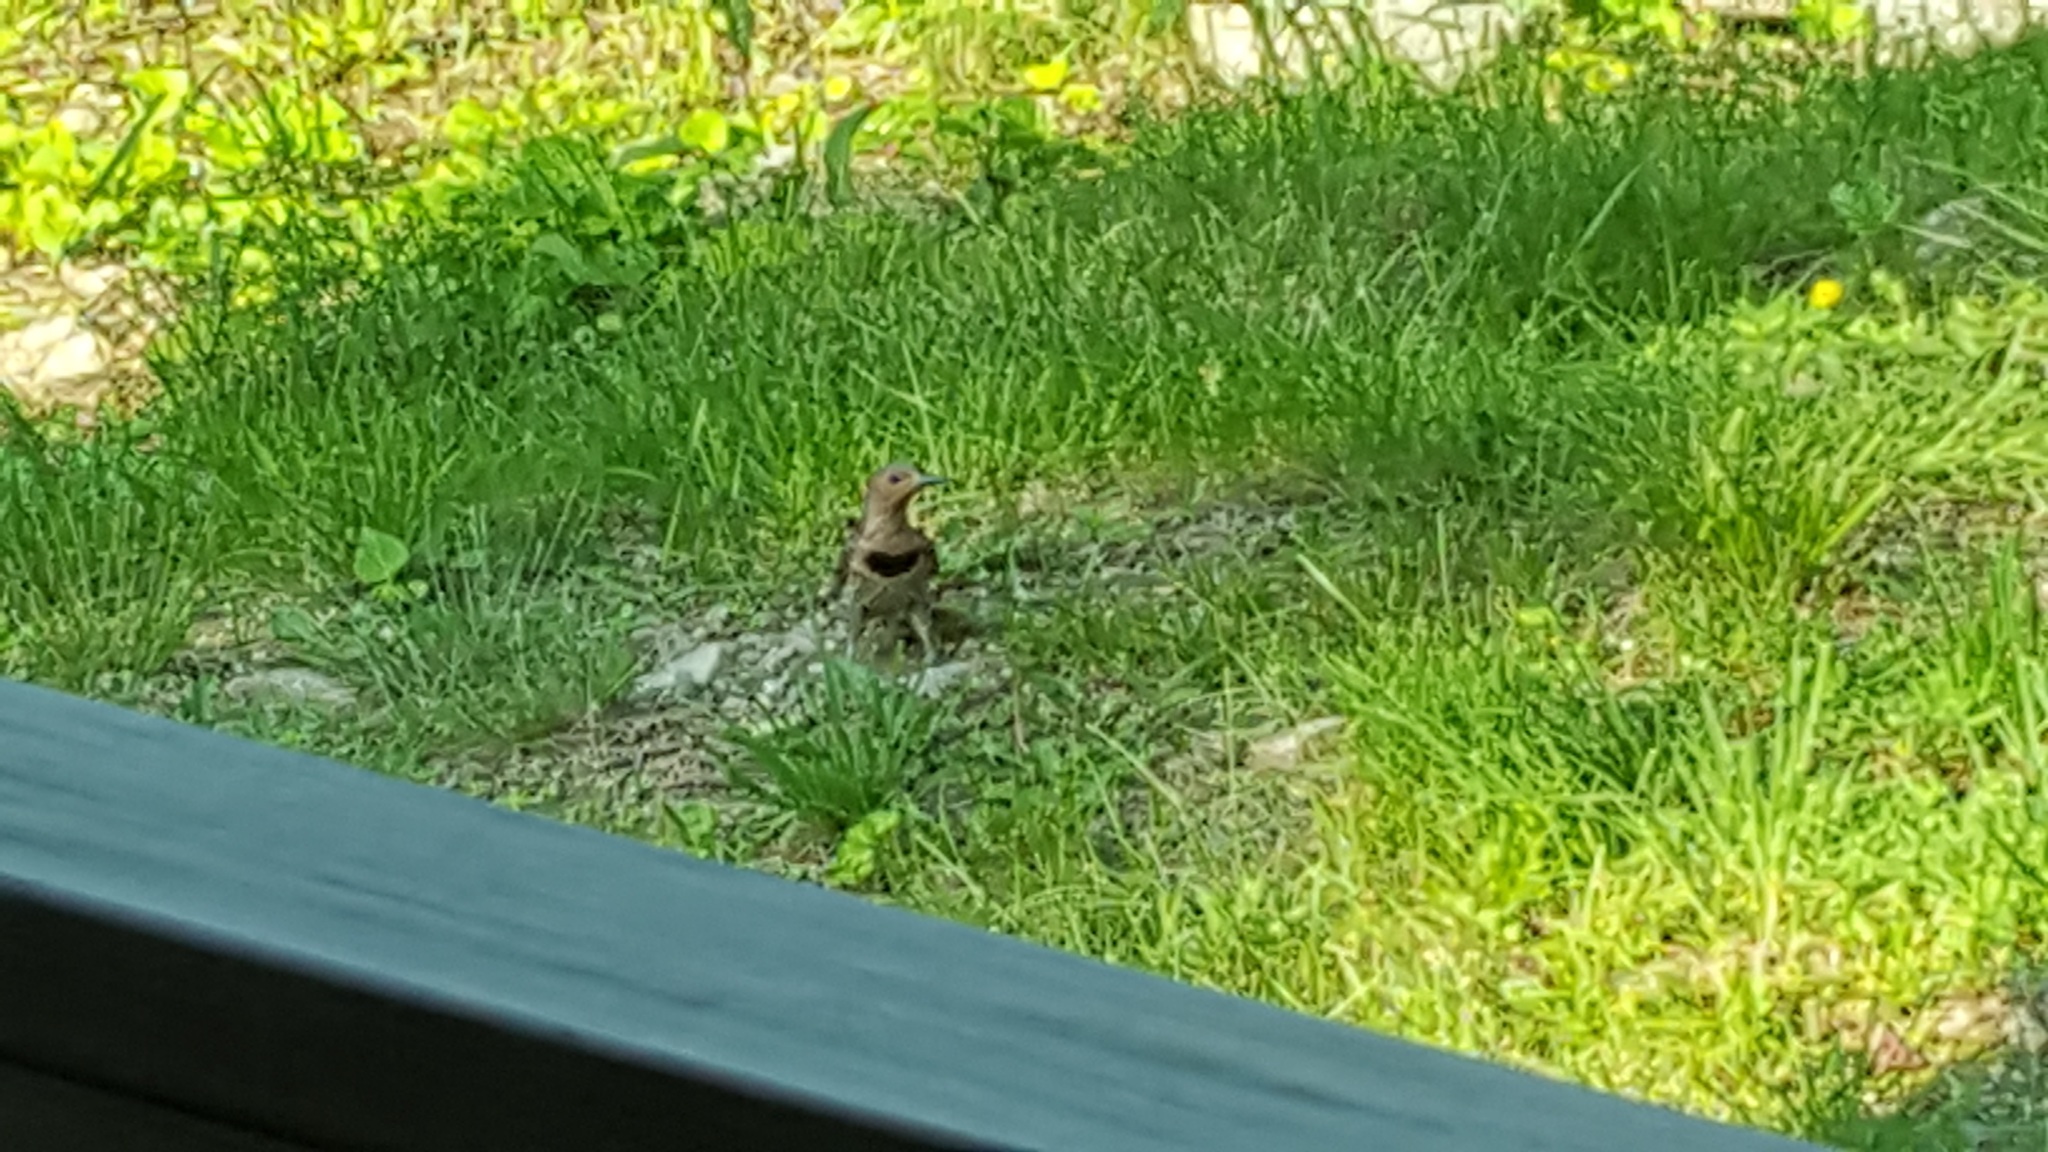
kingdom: Animalia
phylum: Chordata
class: Aves
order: Piciformes
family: Picidae
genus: Colaptes
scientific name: Colaptes auratus
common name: Northern flicker
